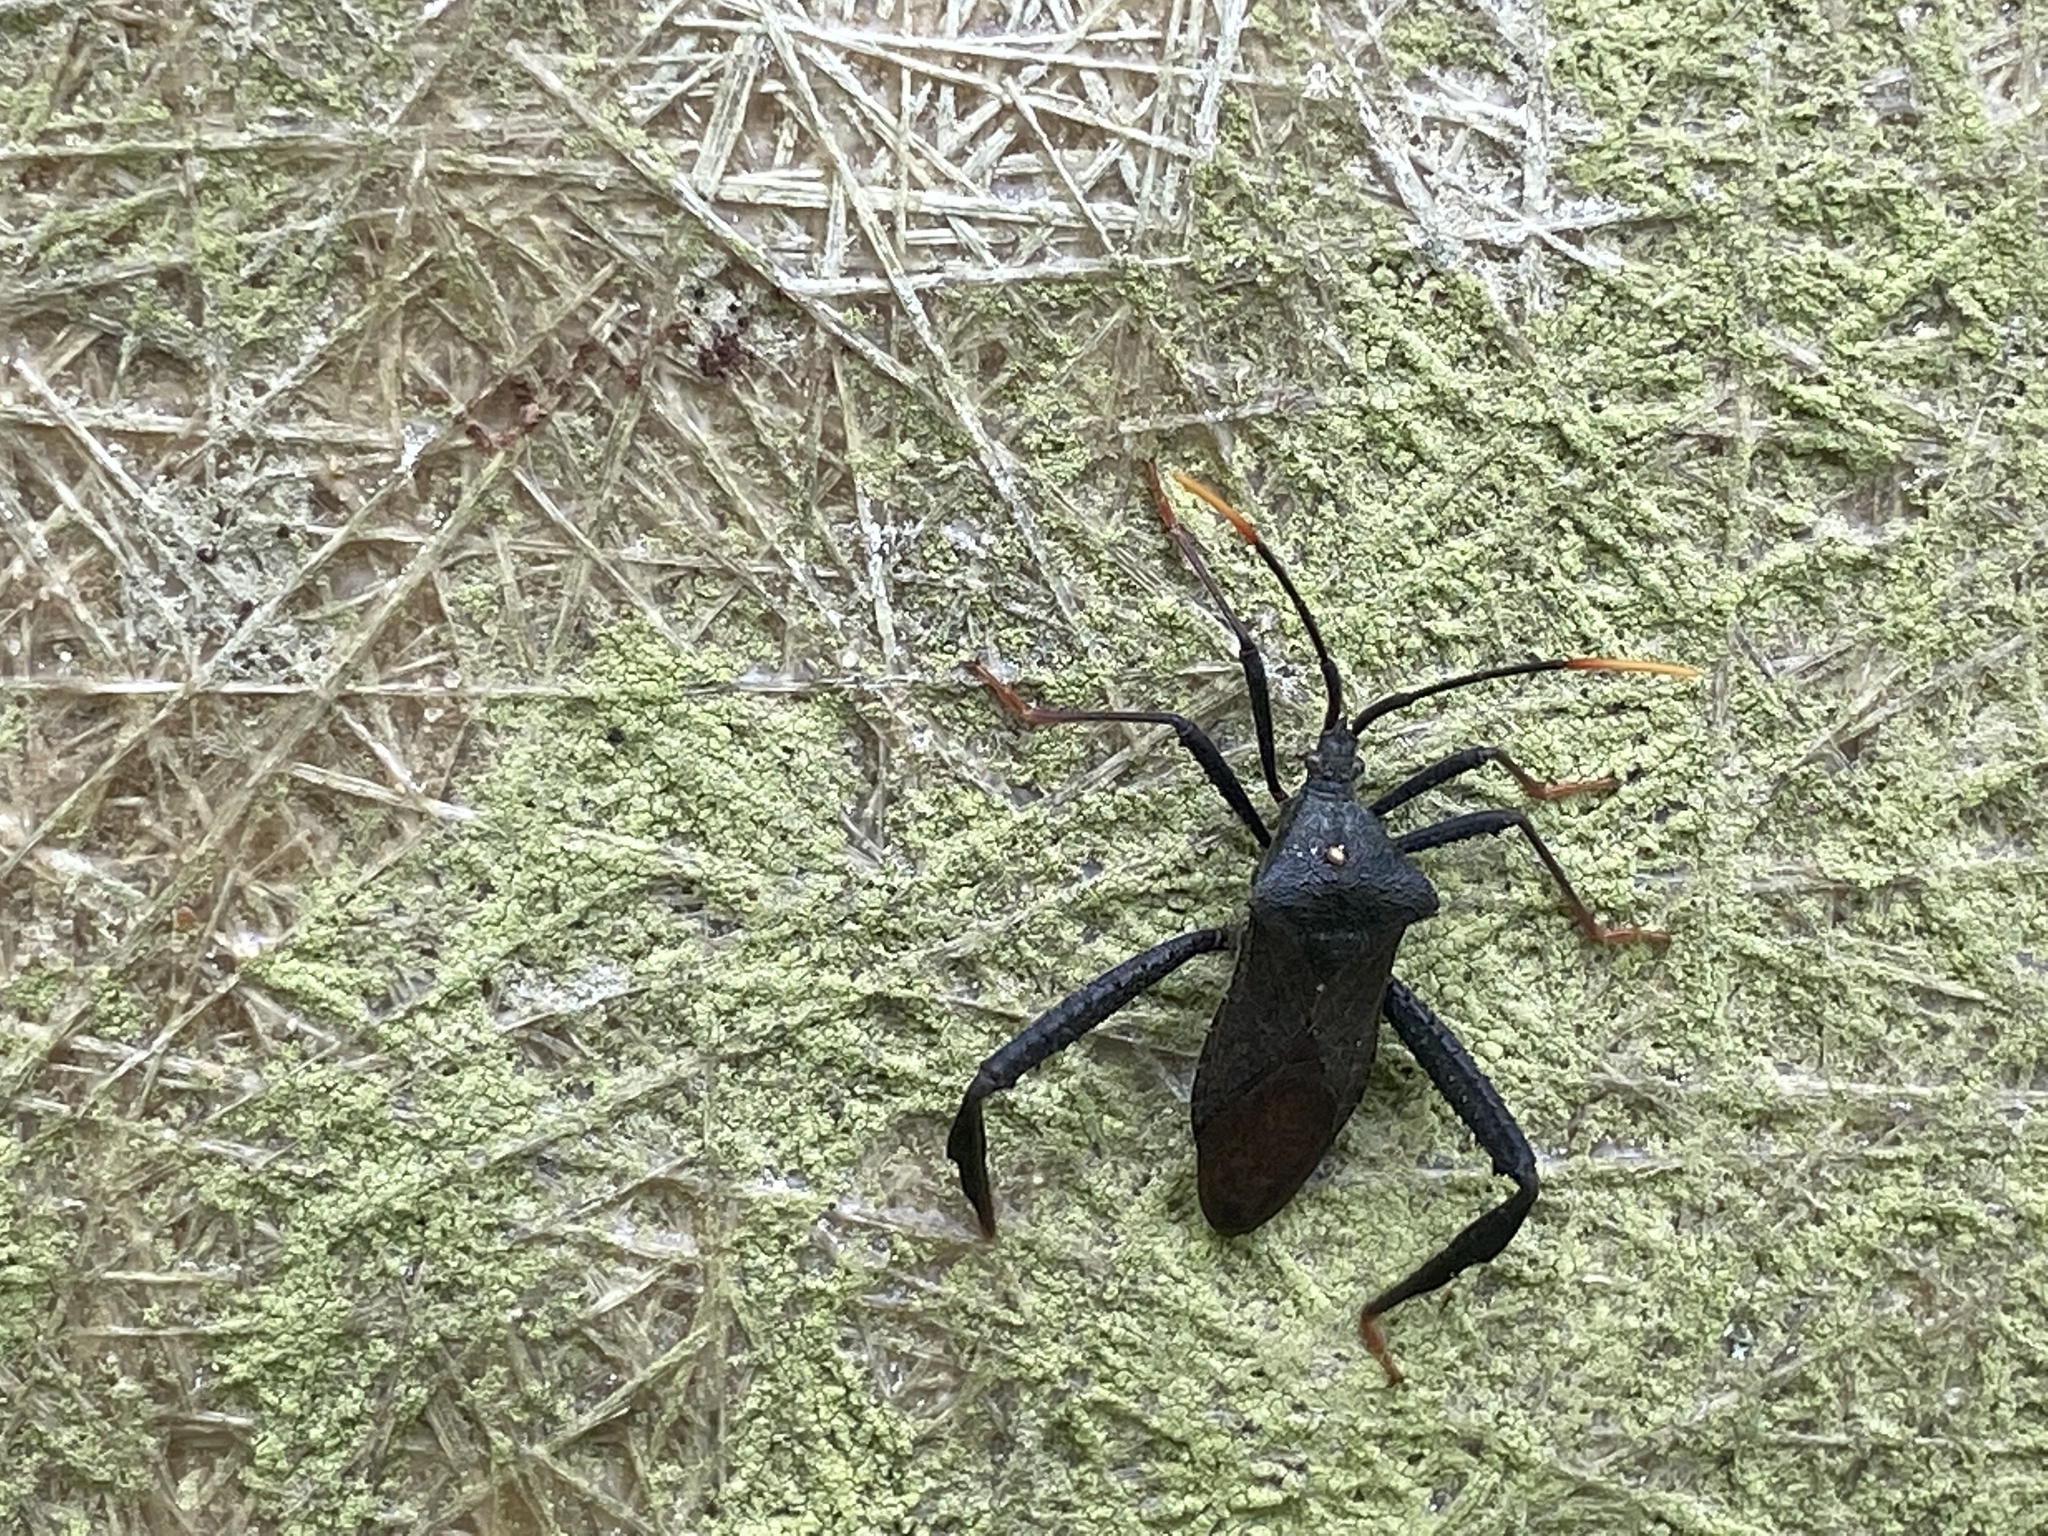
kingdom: Animalia
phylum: Arthropoda
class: Insecta
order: Hemiptera
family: Coreidae
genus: Acanthocephala
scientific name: Acanthocephala terminalis
